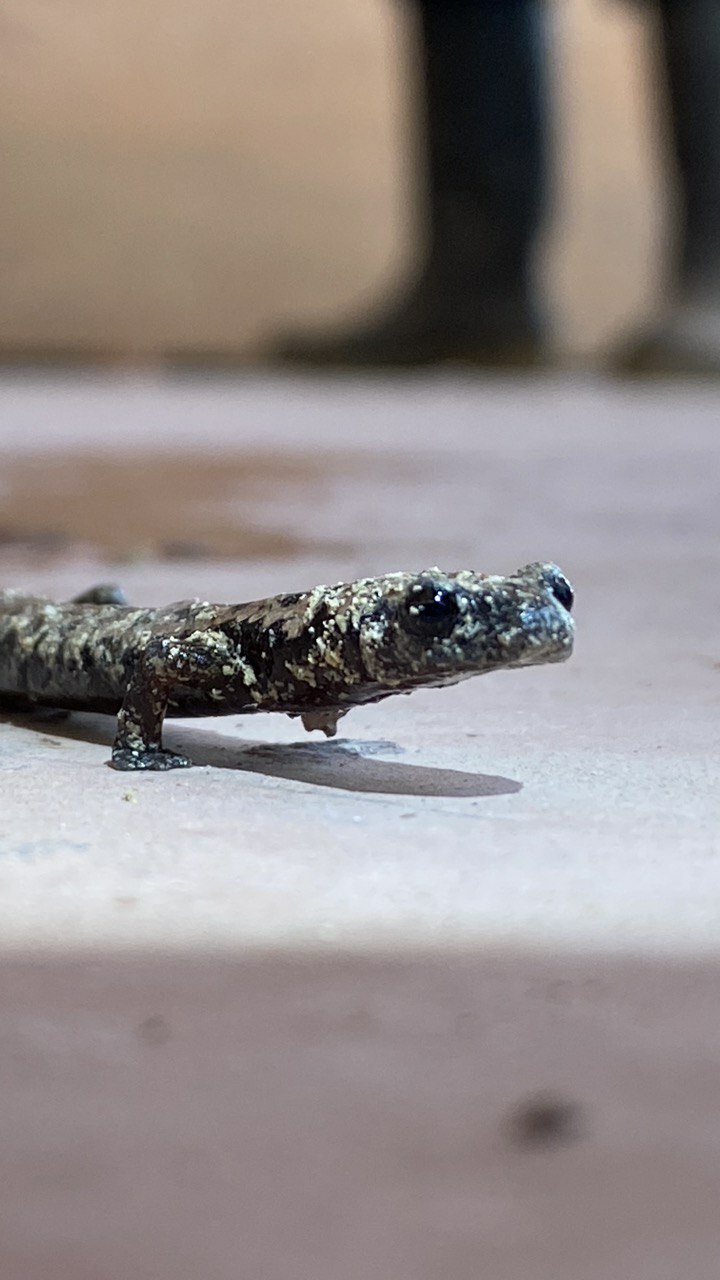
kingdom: Animalia
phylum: Chordata
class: Amphibia
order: Caudata
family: Plethodontidae
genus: Bolitoglossa
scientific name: Bolitoglossa yucatana
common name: Yucatan mushroomtongue salamander
